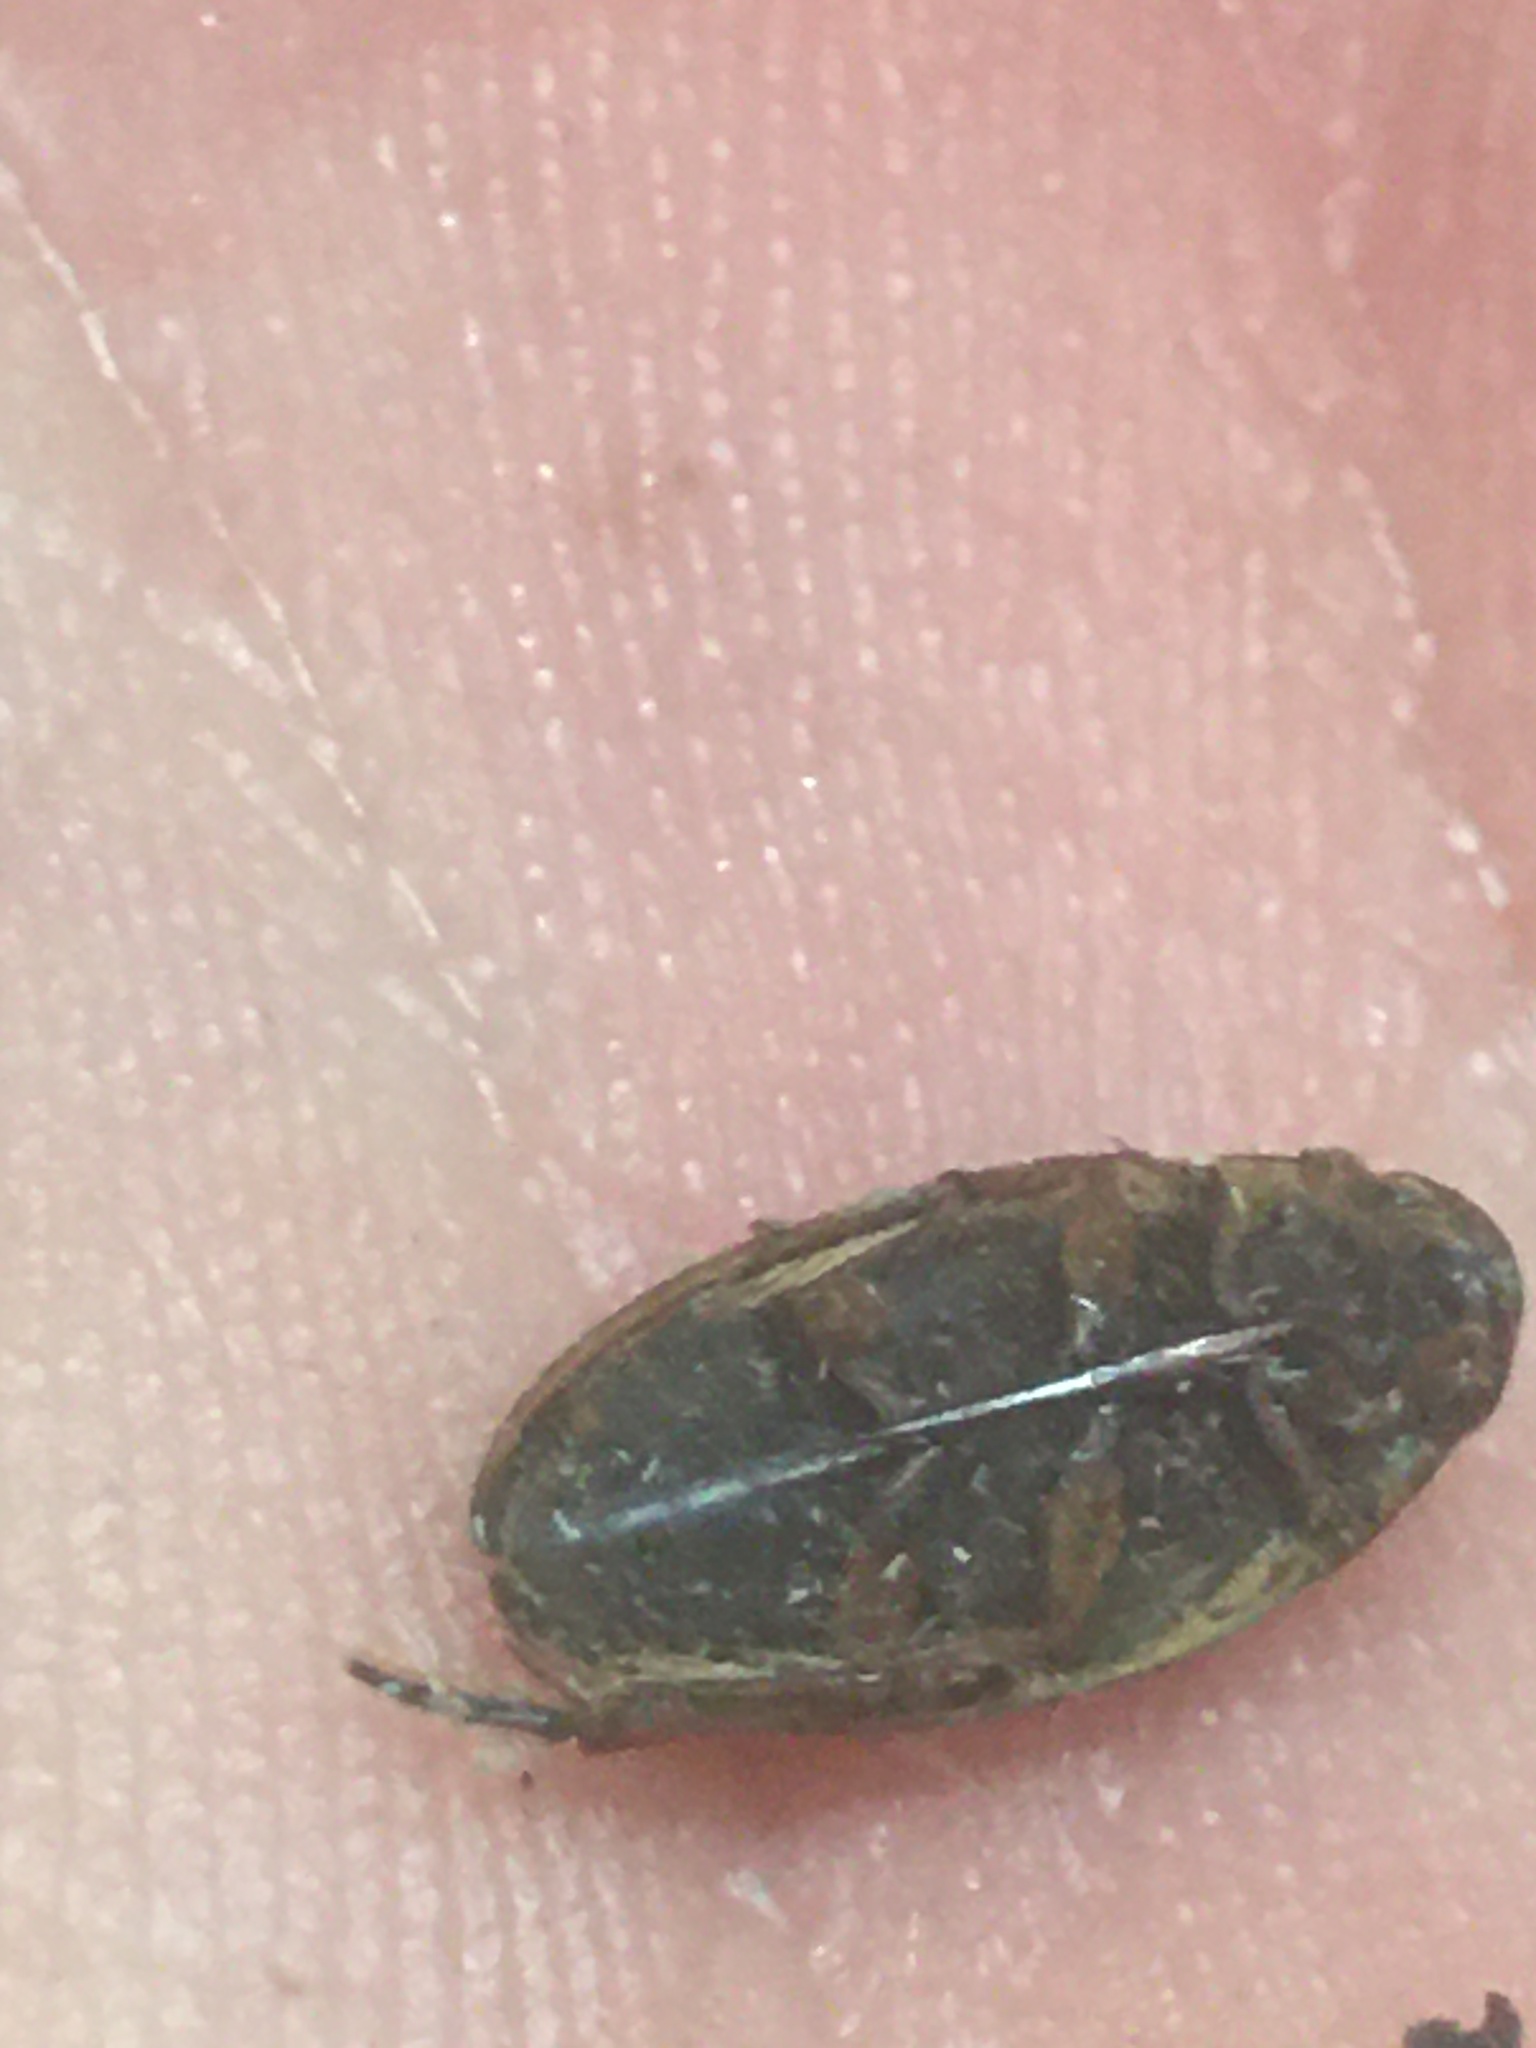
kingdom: Animalia
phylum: Arthropoda
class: Insecta
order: Coleoptera
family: Hydrophilidae
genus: Tropisternus
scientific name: Tropisternus lateralis
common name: Lateral-banded water scavenger beetle
